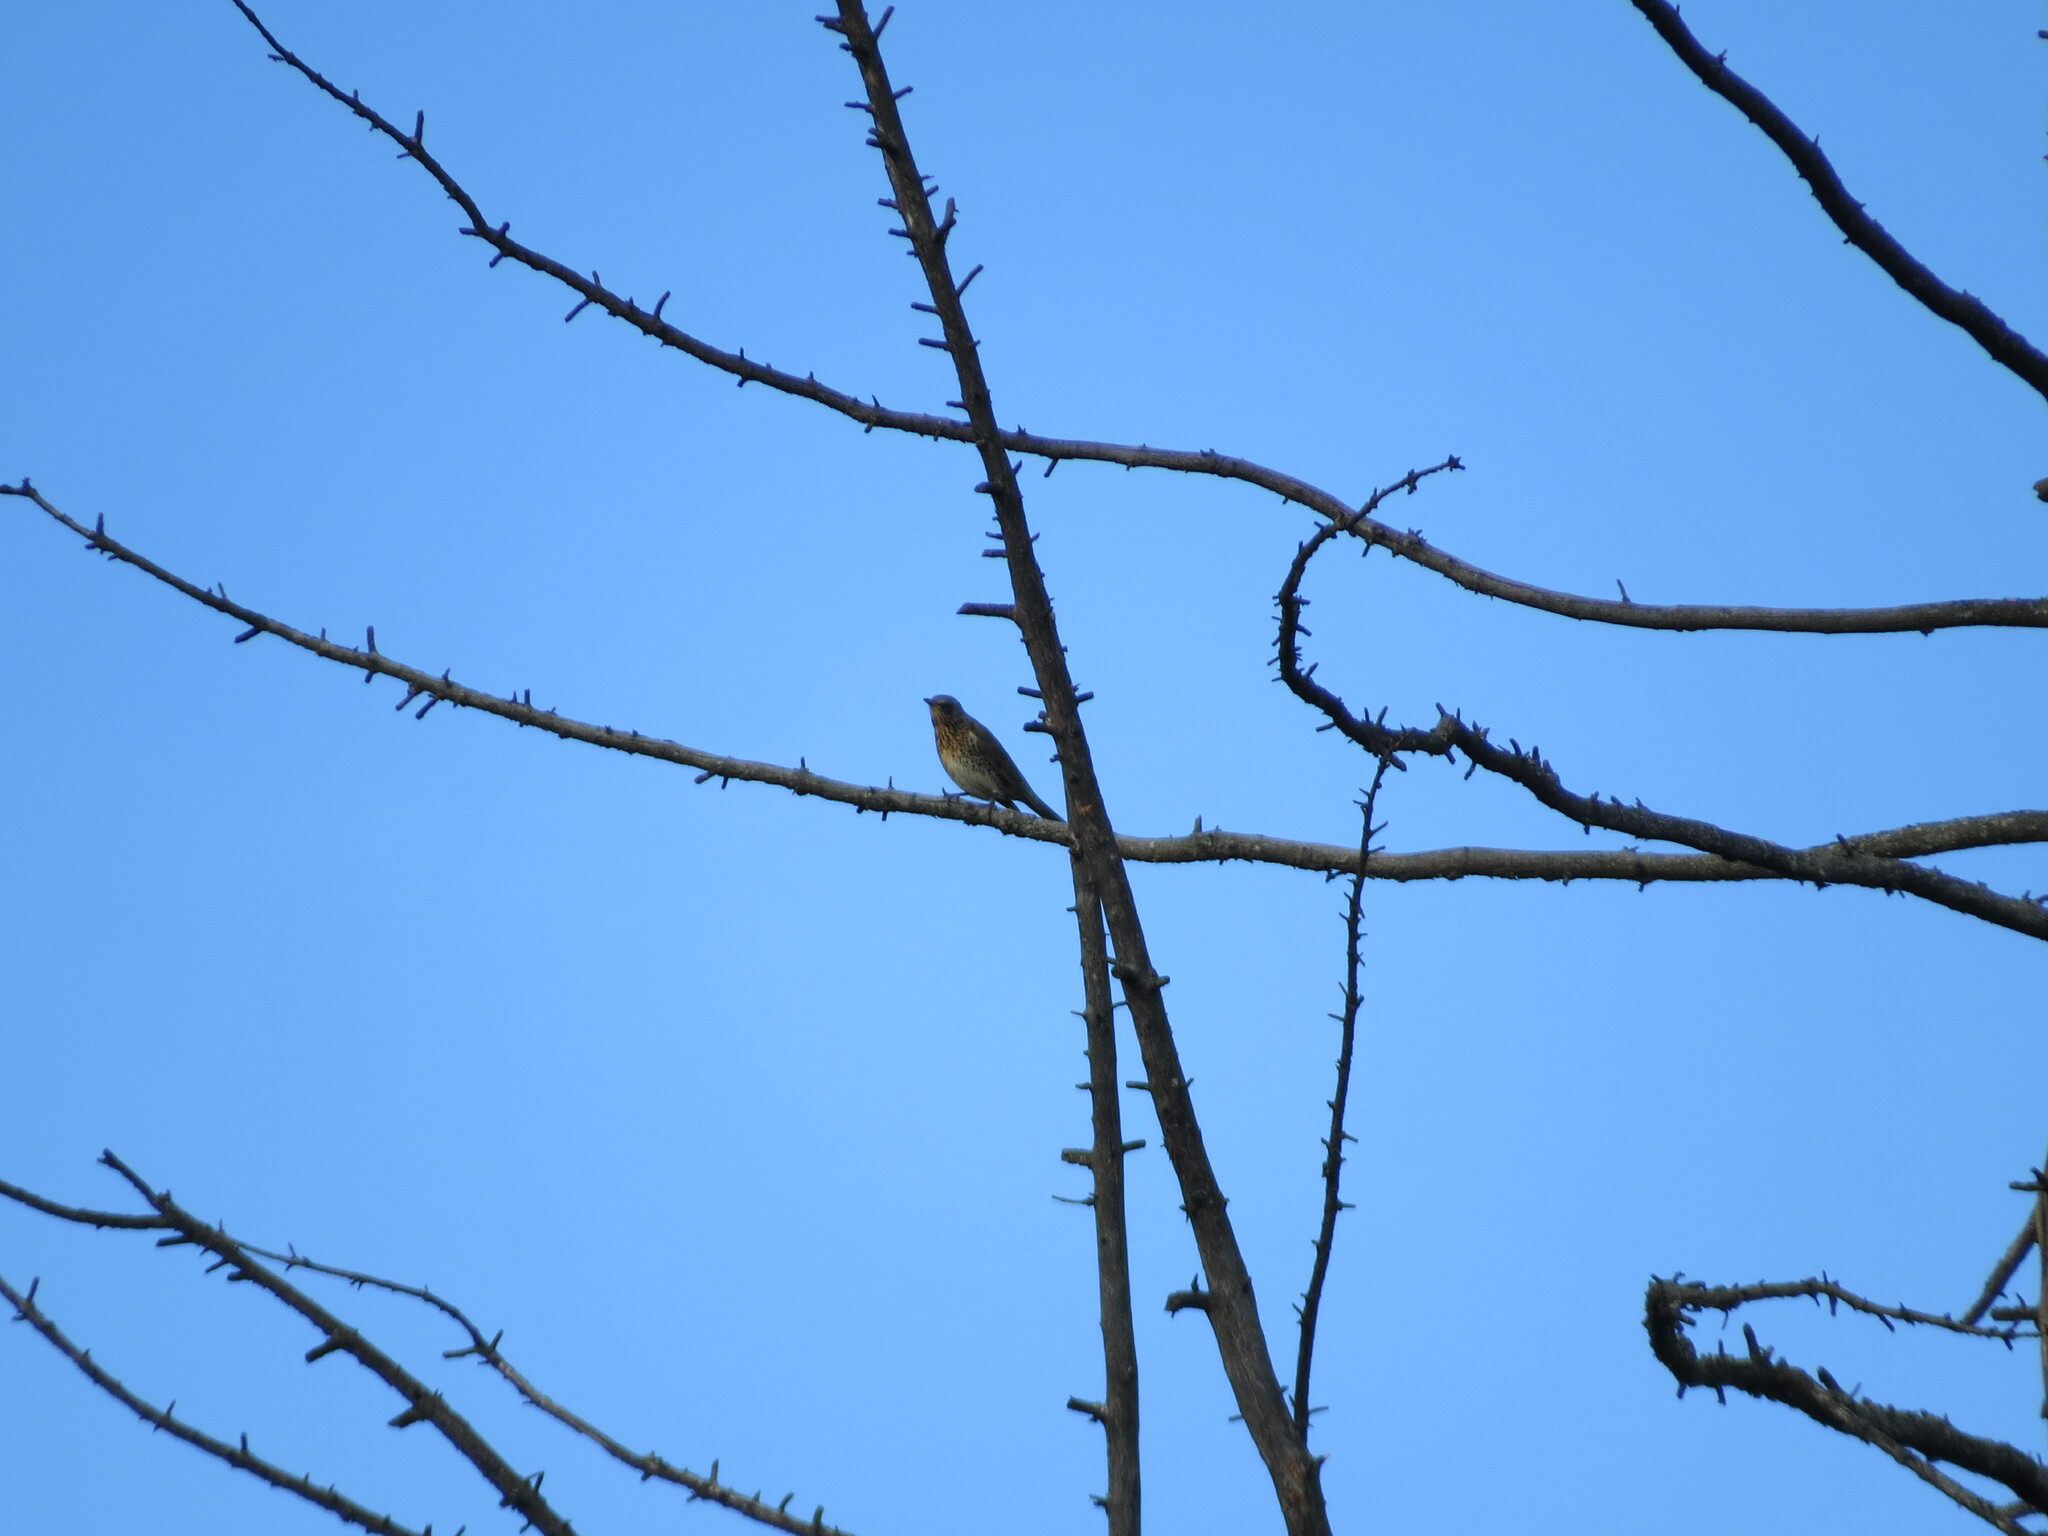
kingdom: Animalia
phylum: Chordata
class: Aves
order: Passeriformes
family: Turdidae
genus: Turdus
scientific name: Turdus pilaris
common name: Fieldfare
